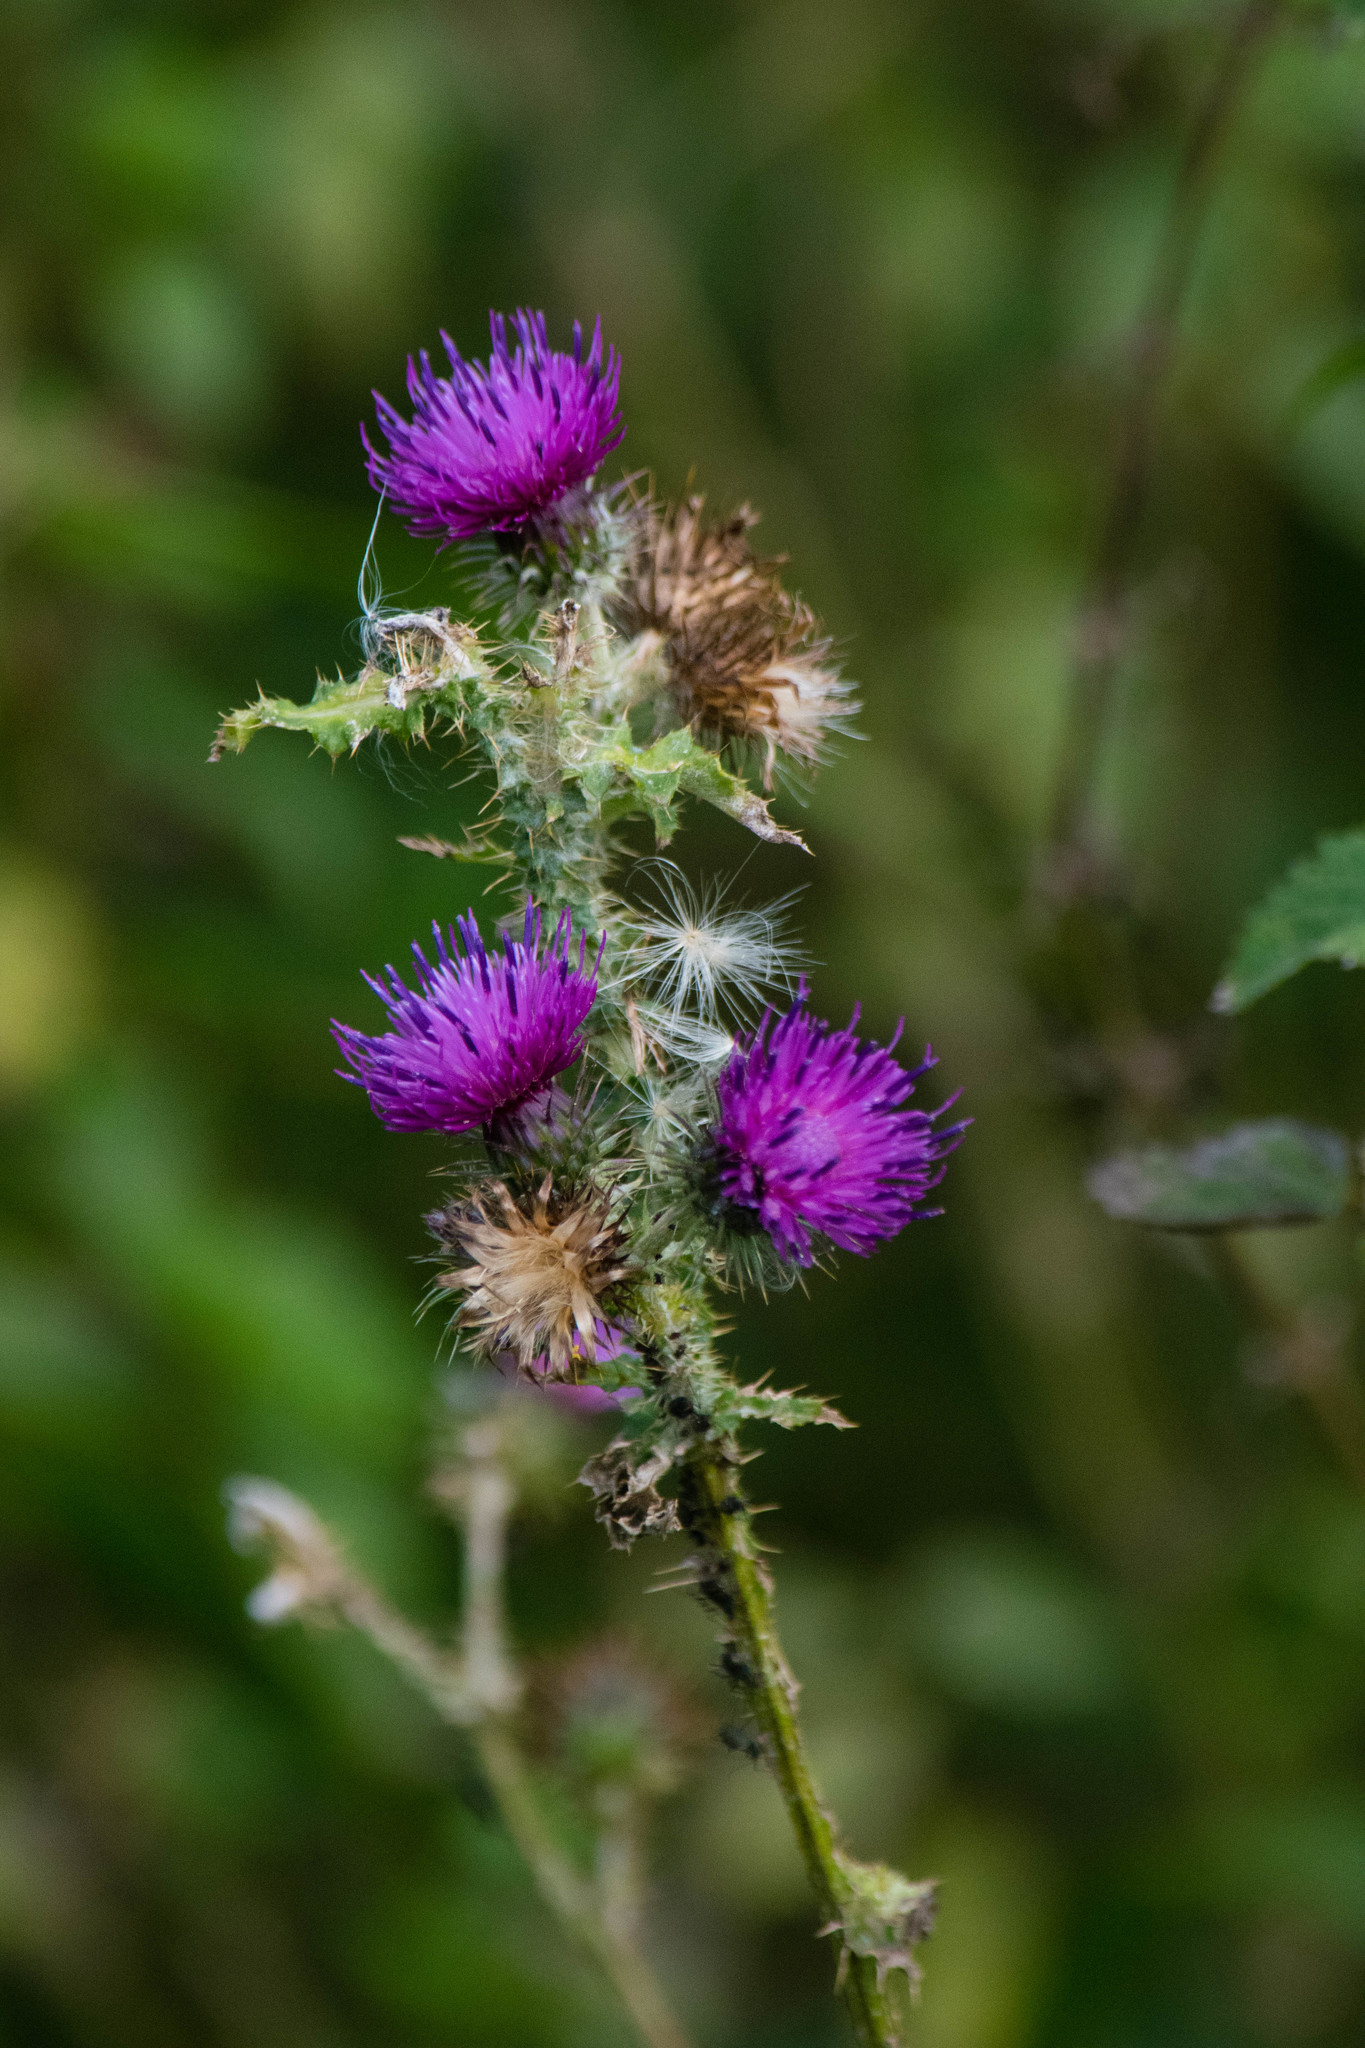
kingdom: Plantae
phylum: Tracheophyta
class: Magnoliopsida
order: Asterales
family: Asteraceae
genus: Carduus
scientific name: Carduus crispus
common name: Welted thistle
